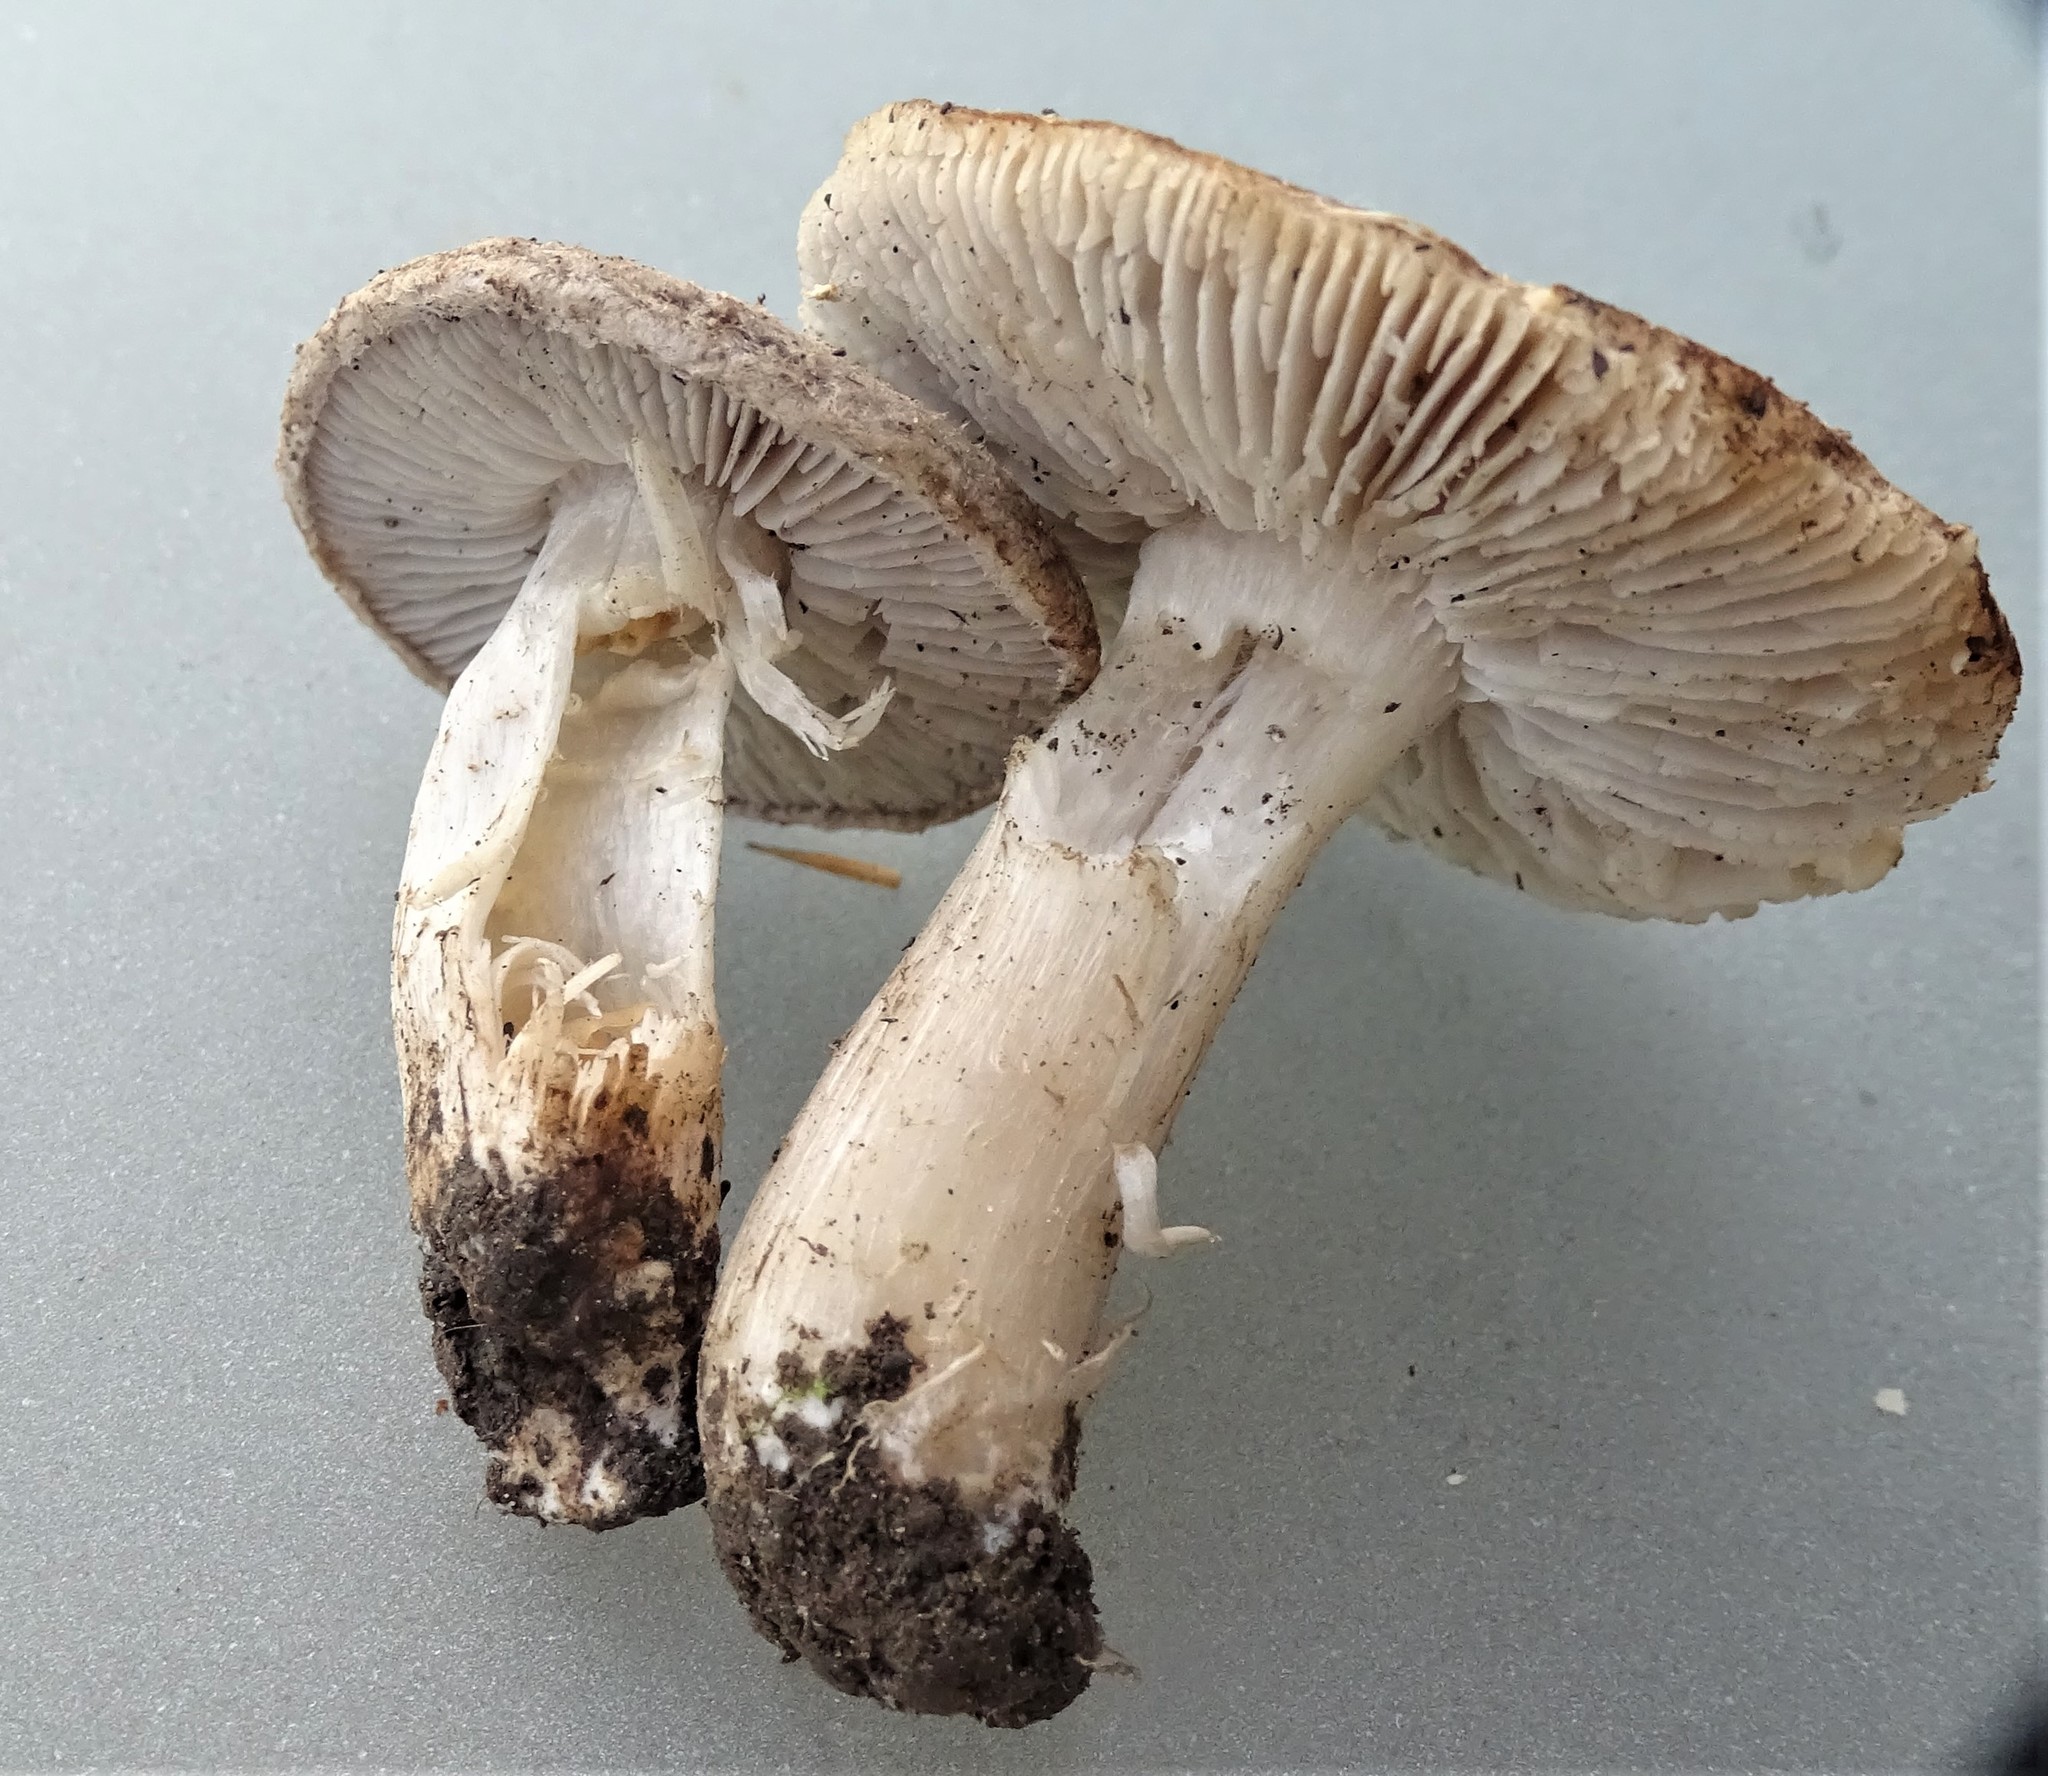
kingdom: Fungi
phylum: Basidiomycota
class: Agaricomycetes
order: Agaricales
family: Tricholomataceae
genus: Tricholoma
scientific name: Tricholoma terreum
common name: Grey knight
